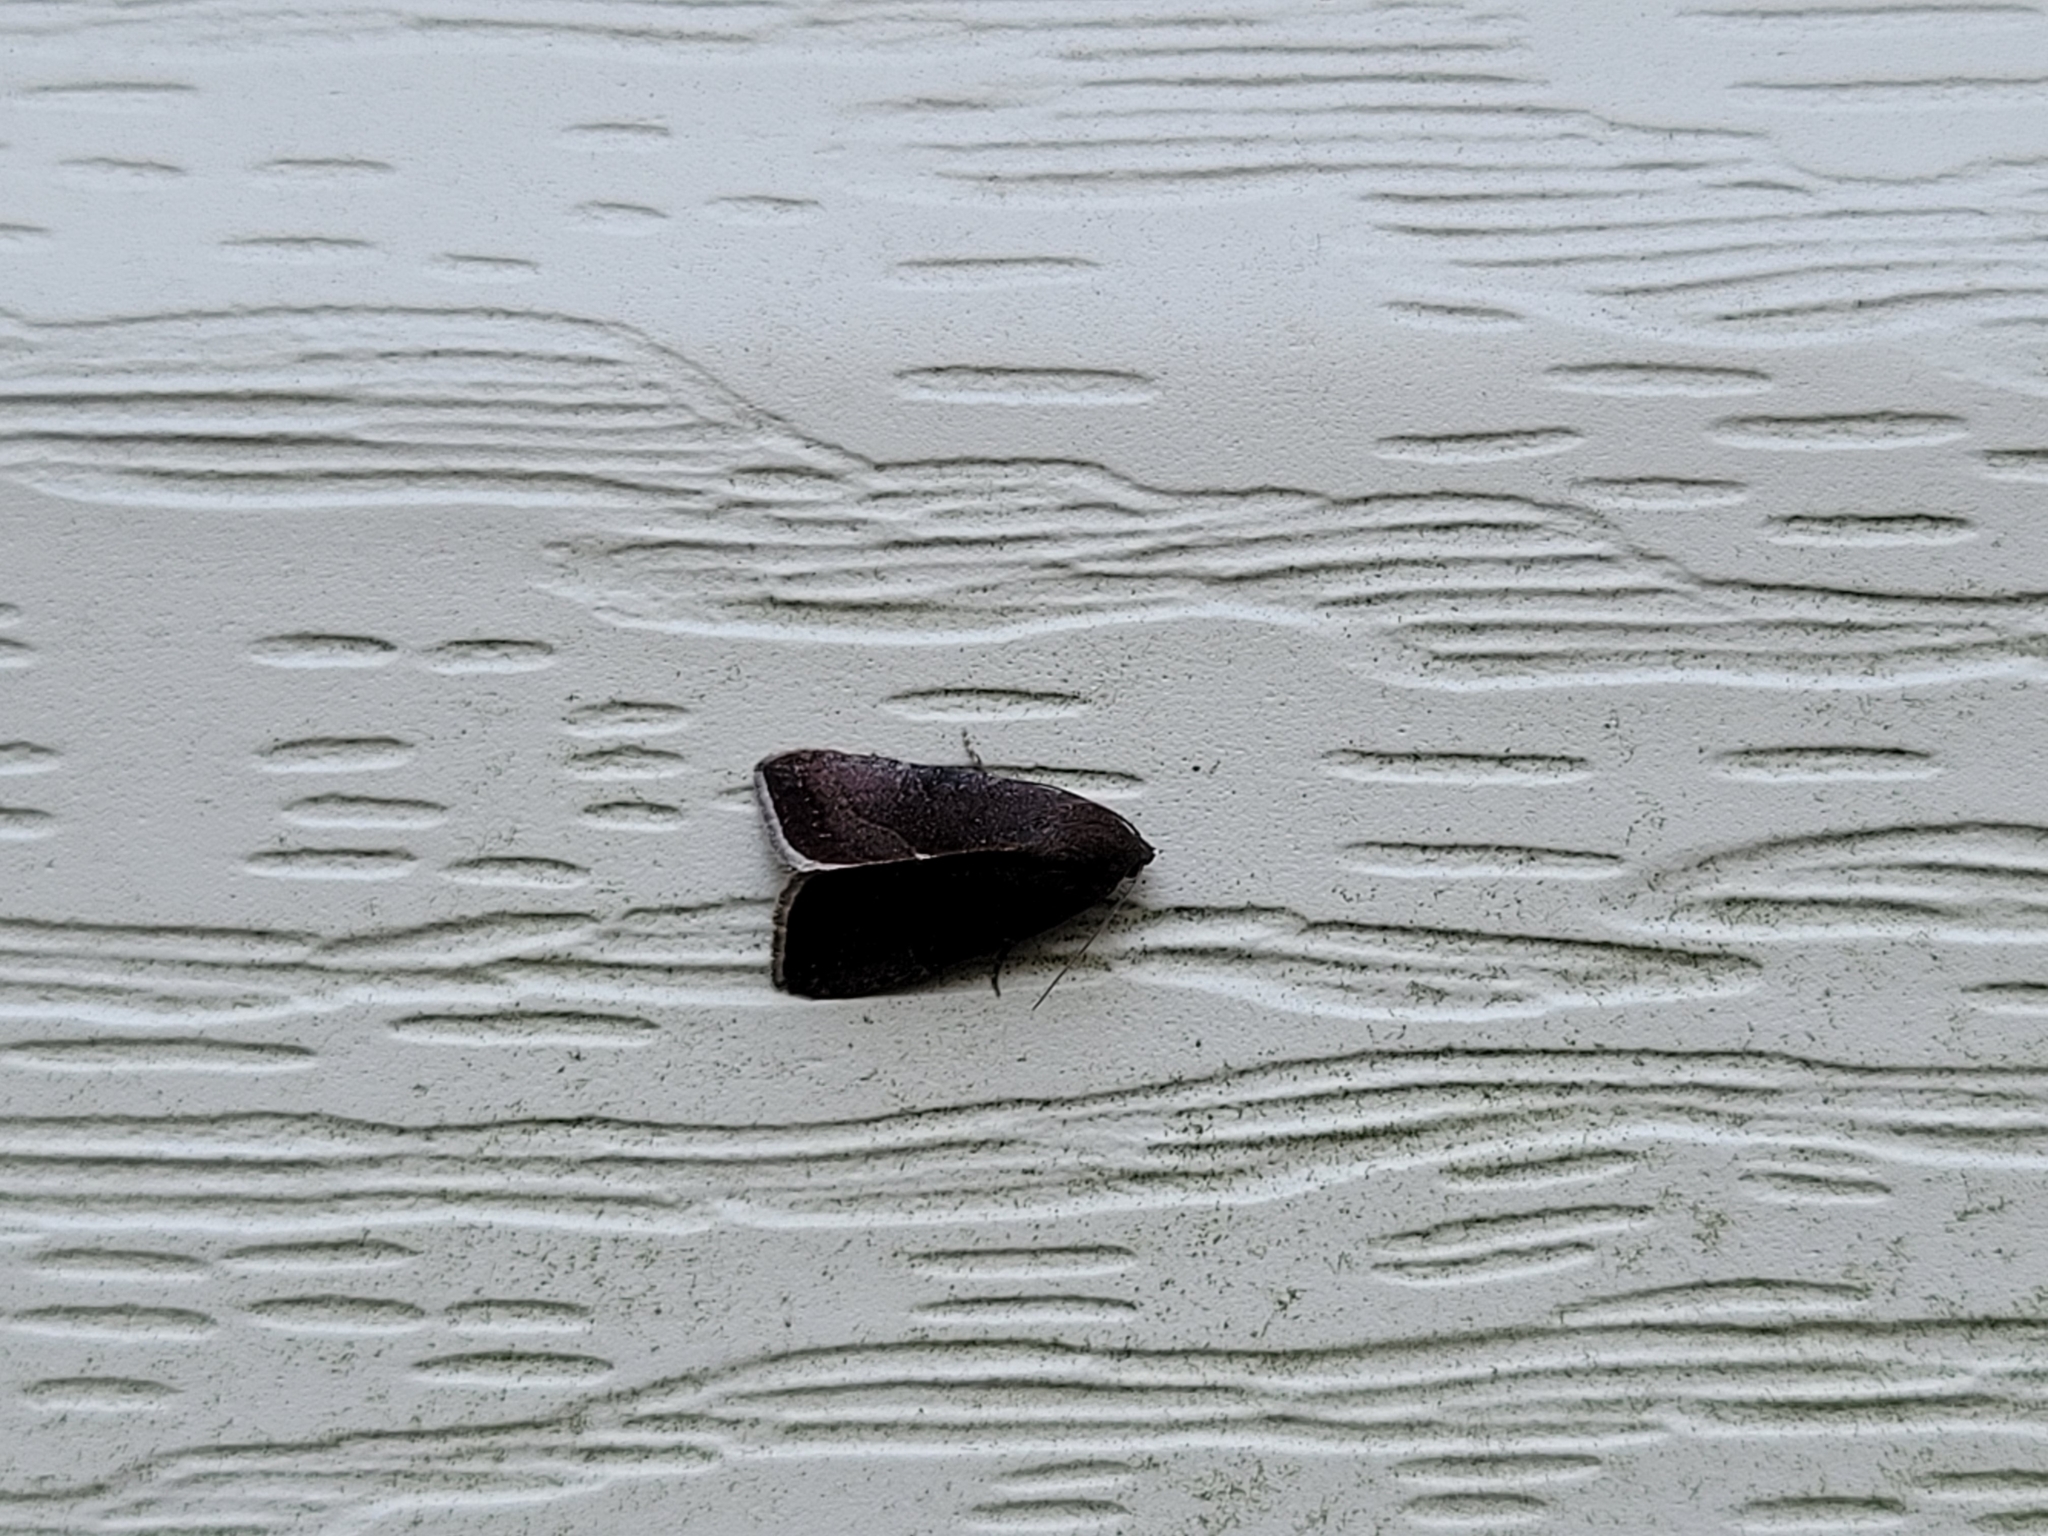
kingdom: Animalia
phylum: Arthropoda
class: Insecta
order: Lepidoptera
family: Noctuidae
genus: Galgula
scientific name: Galgula partita
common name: Wedgeling
